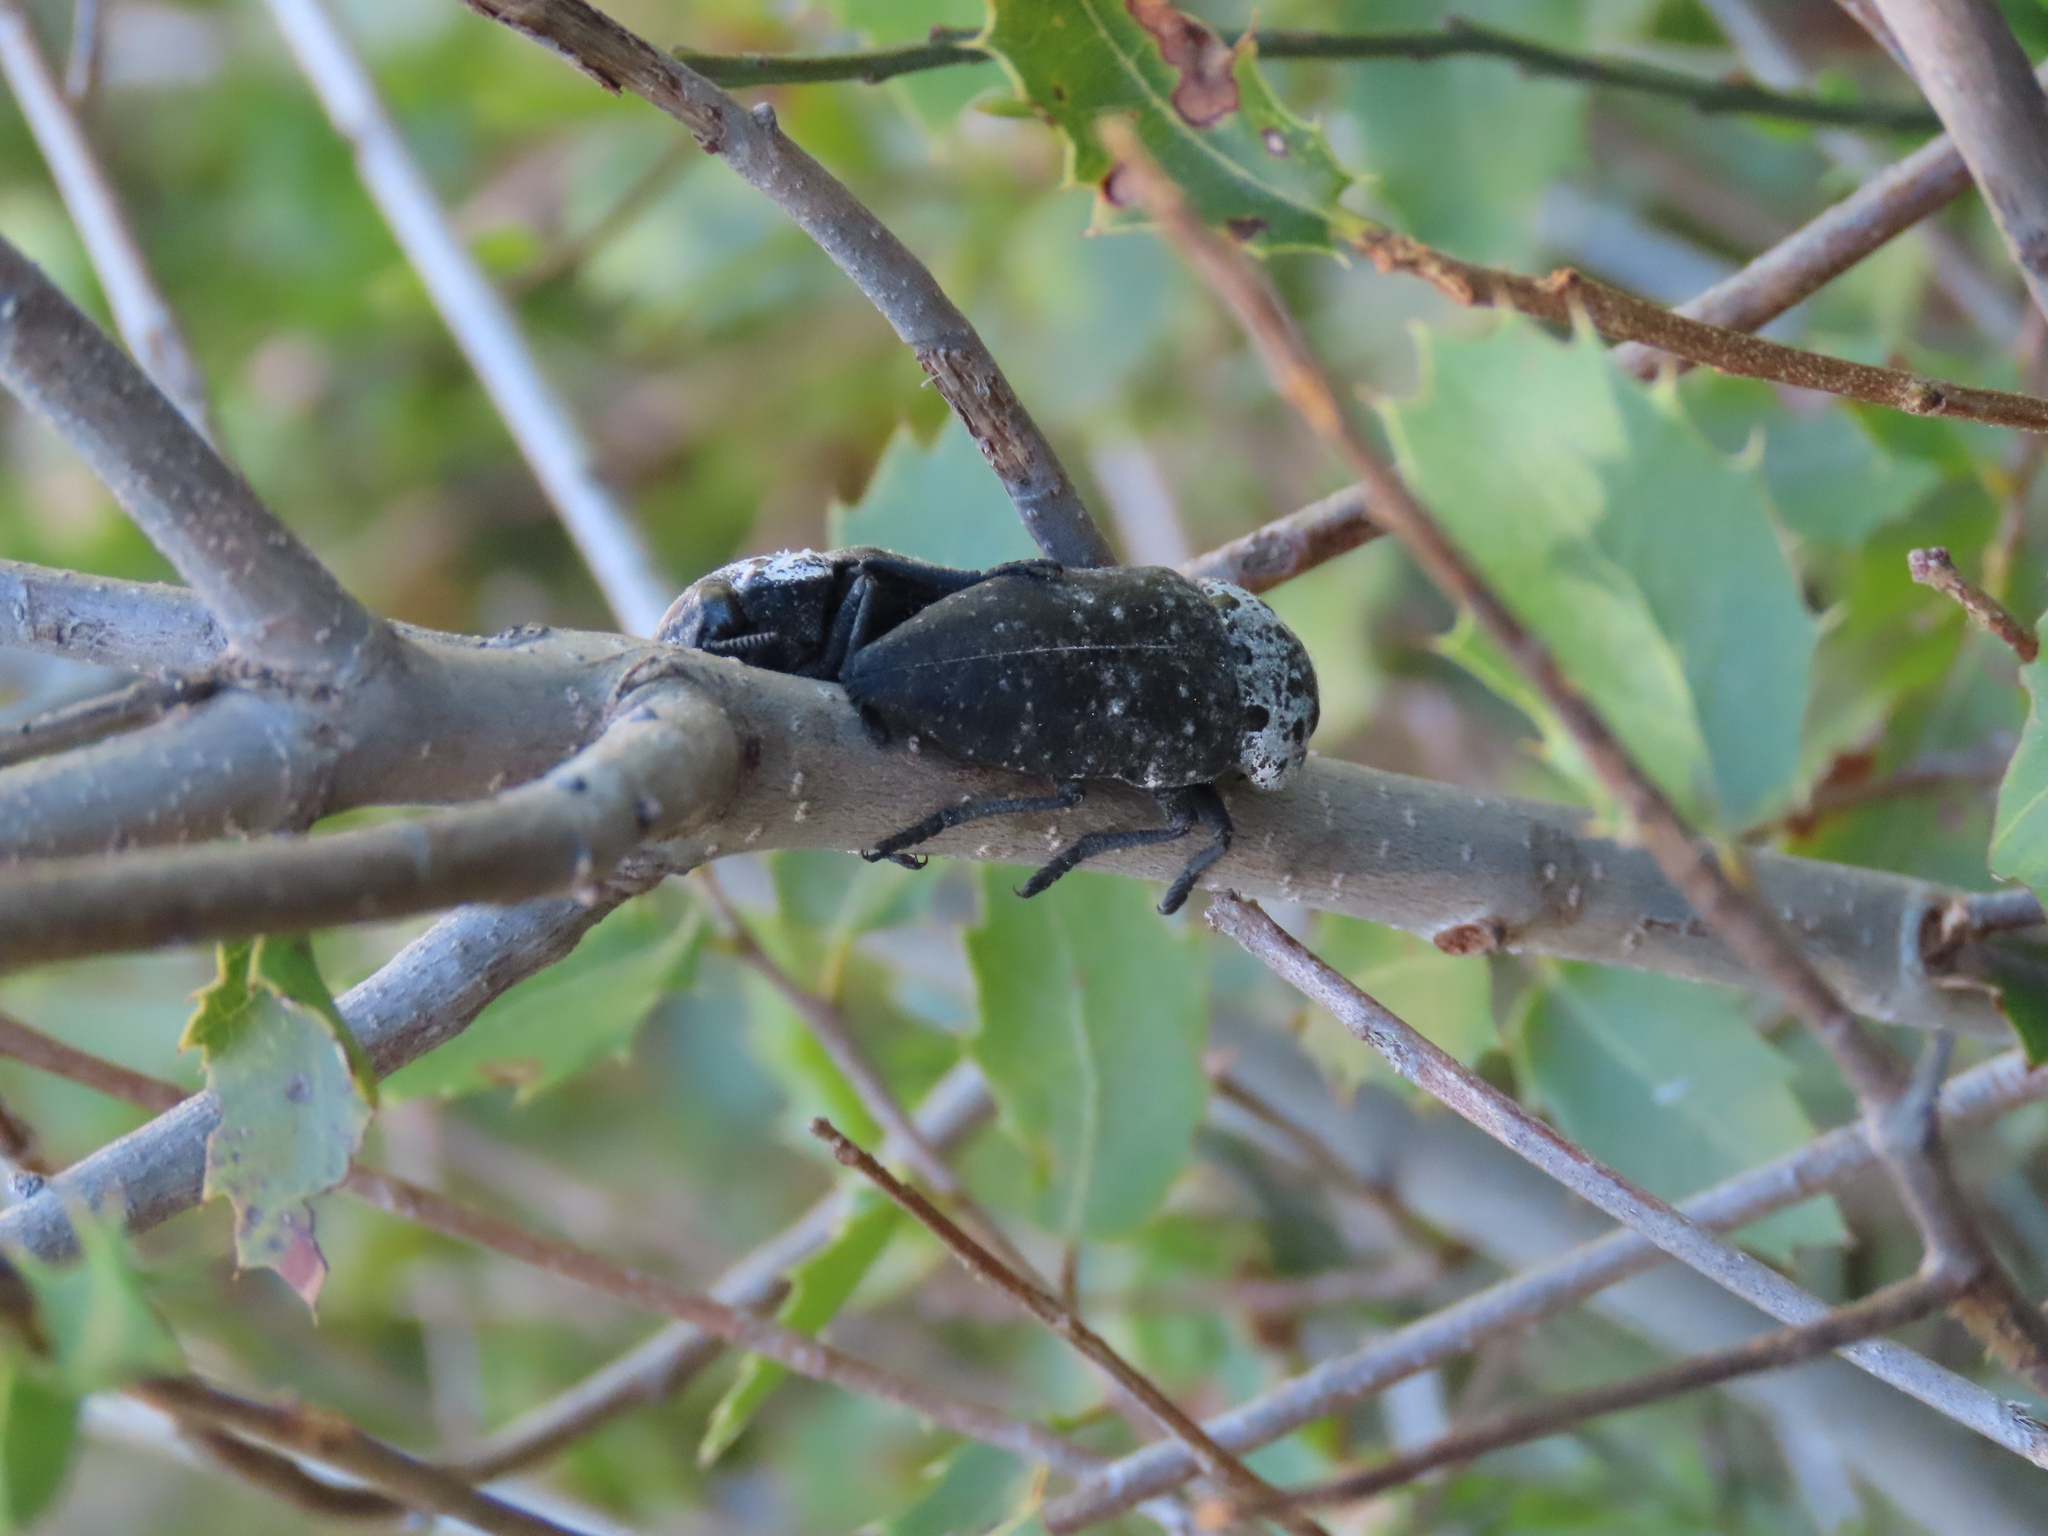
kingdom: Animalia
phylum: Arthropoda
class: Insecta
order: Coleoptera
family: Buprestidae
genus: Capnodis
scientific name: Capnodis tenebrionis
